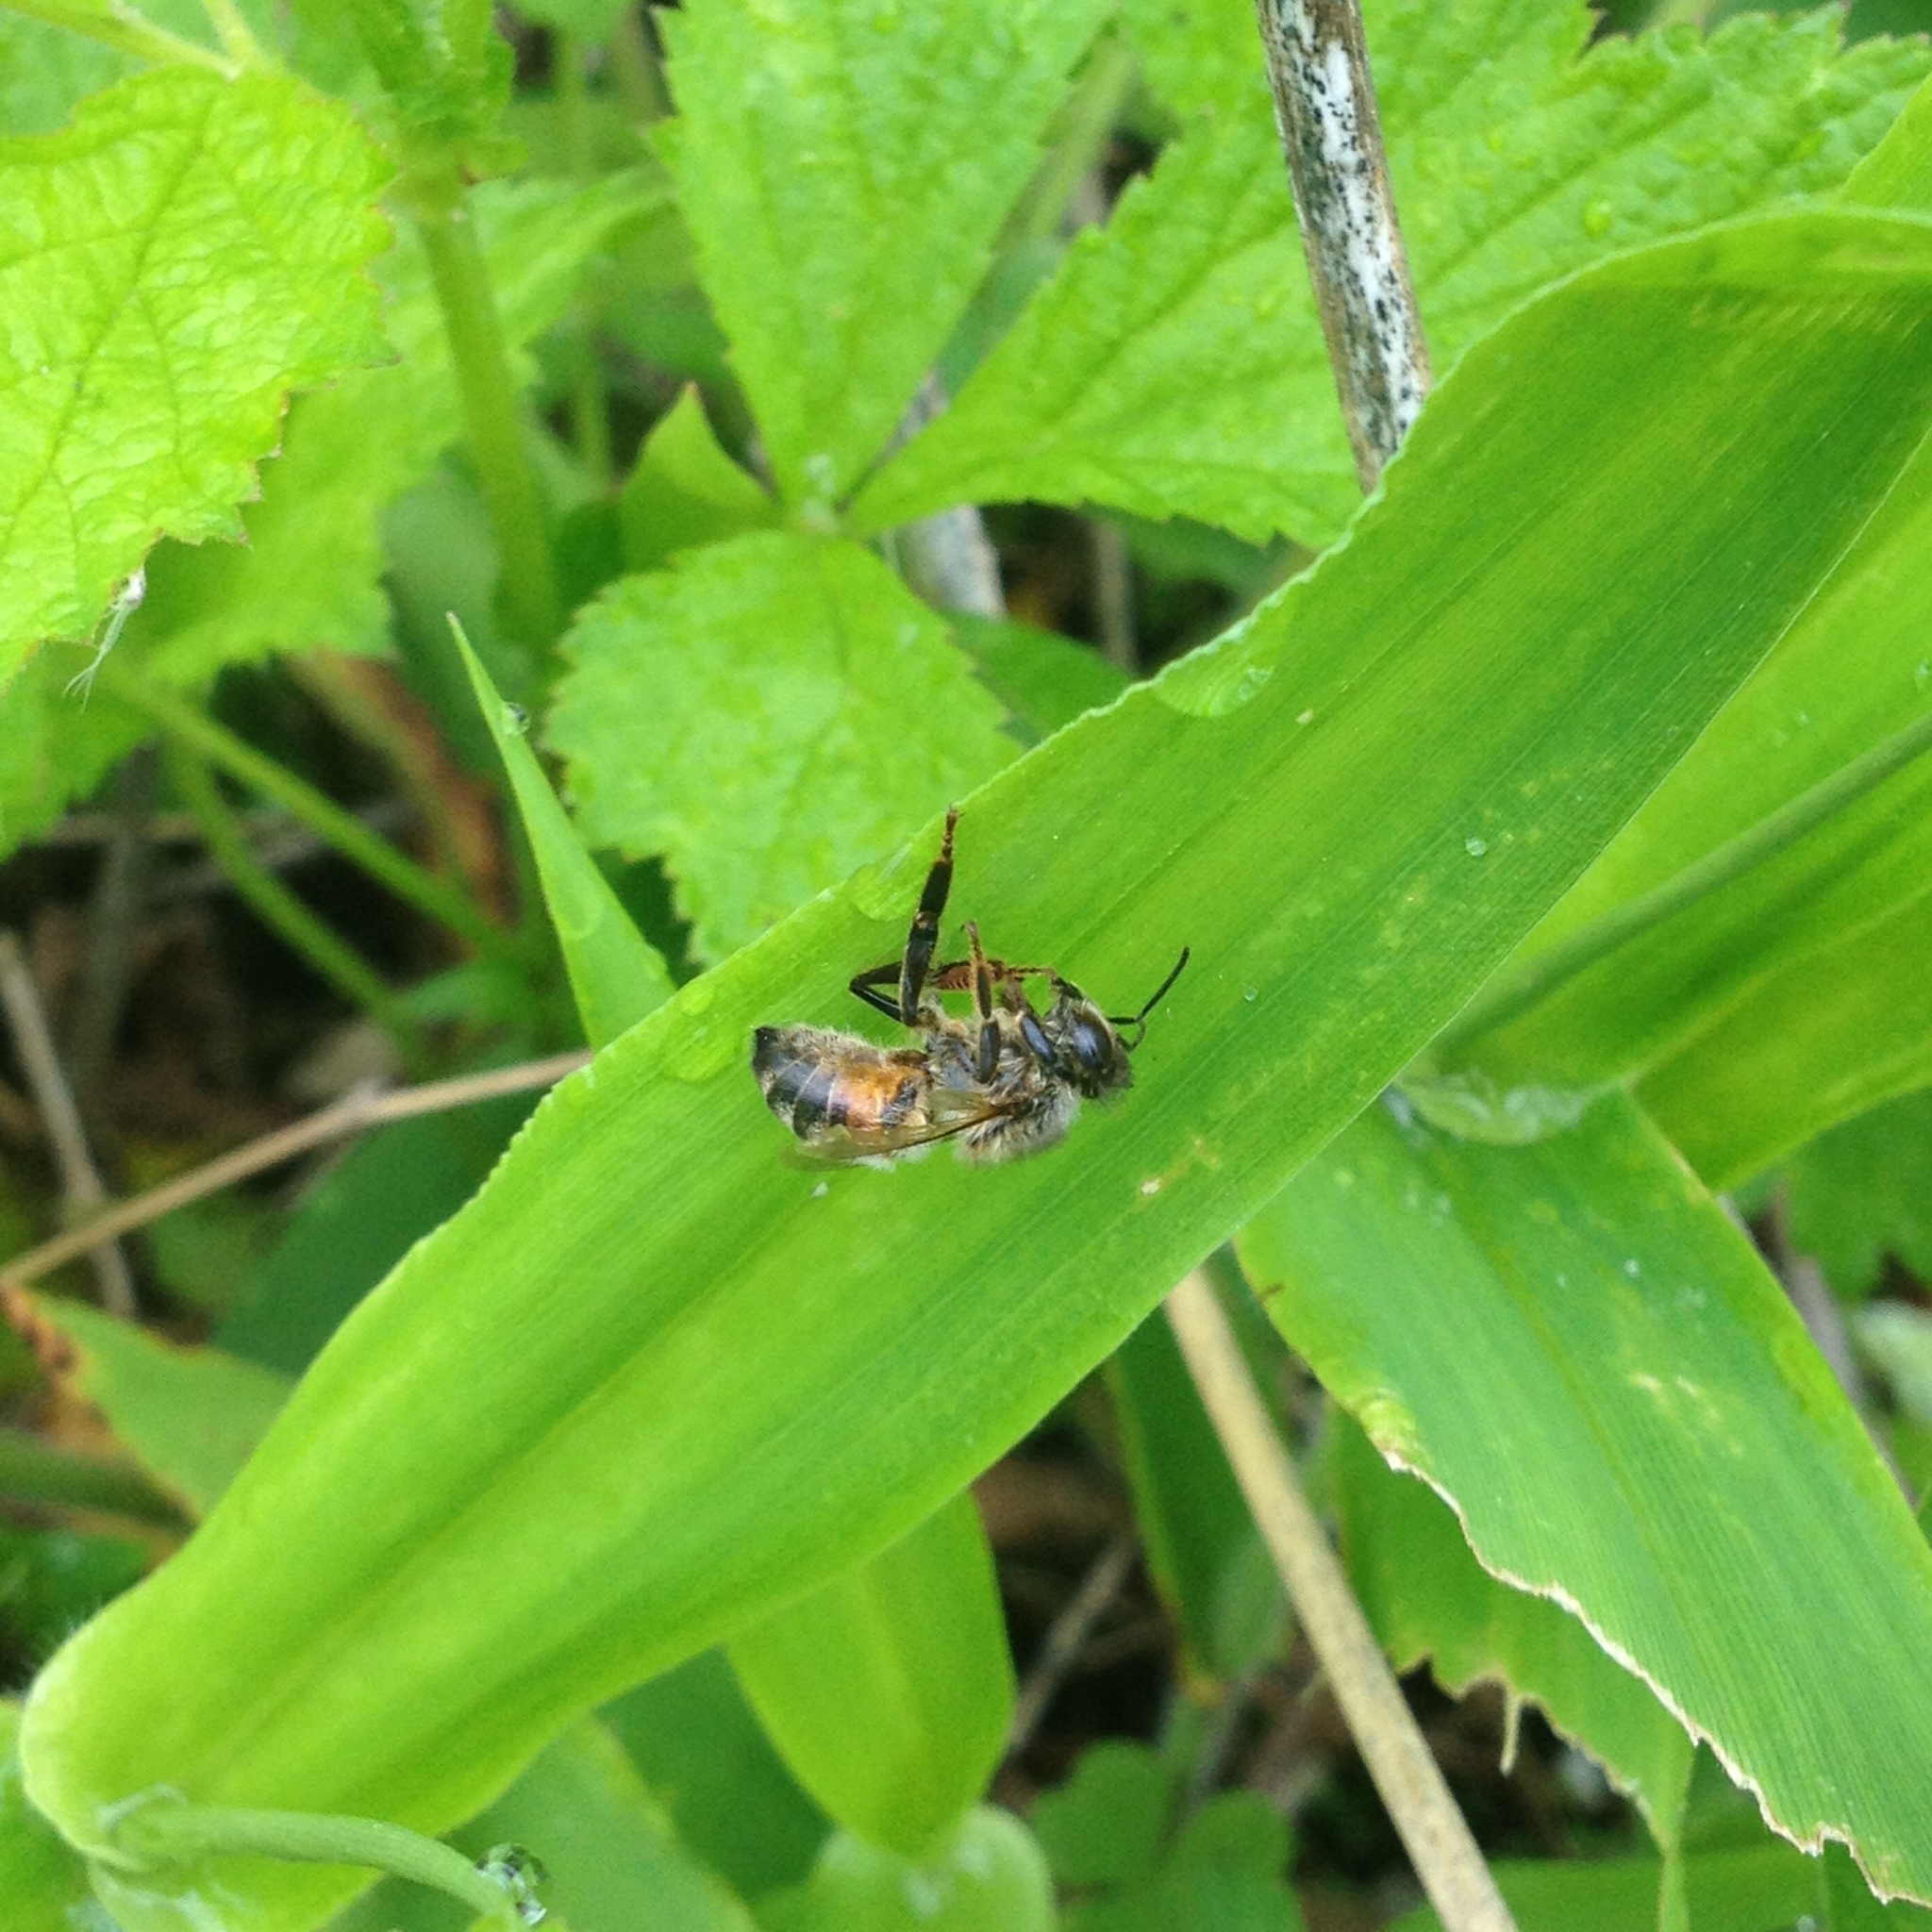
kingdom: Animalia
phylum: Arthropoda
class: Insecta
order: Hymenoptera
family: Apidae
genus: Apis
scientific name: Apis mellifera
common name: Honey bee
